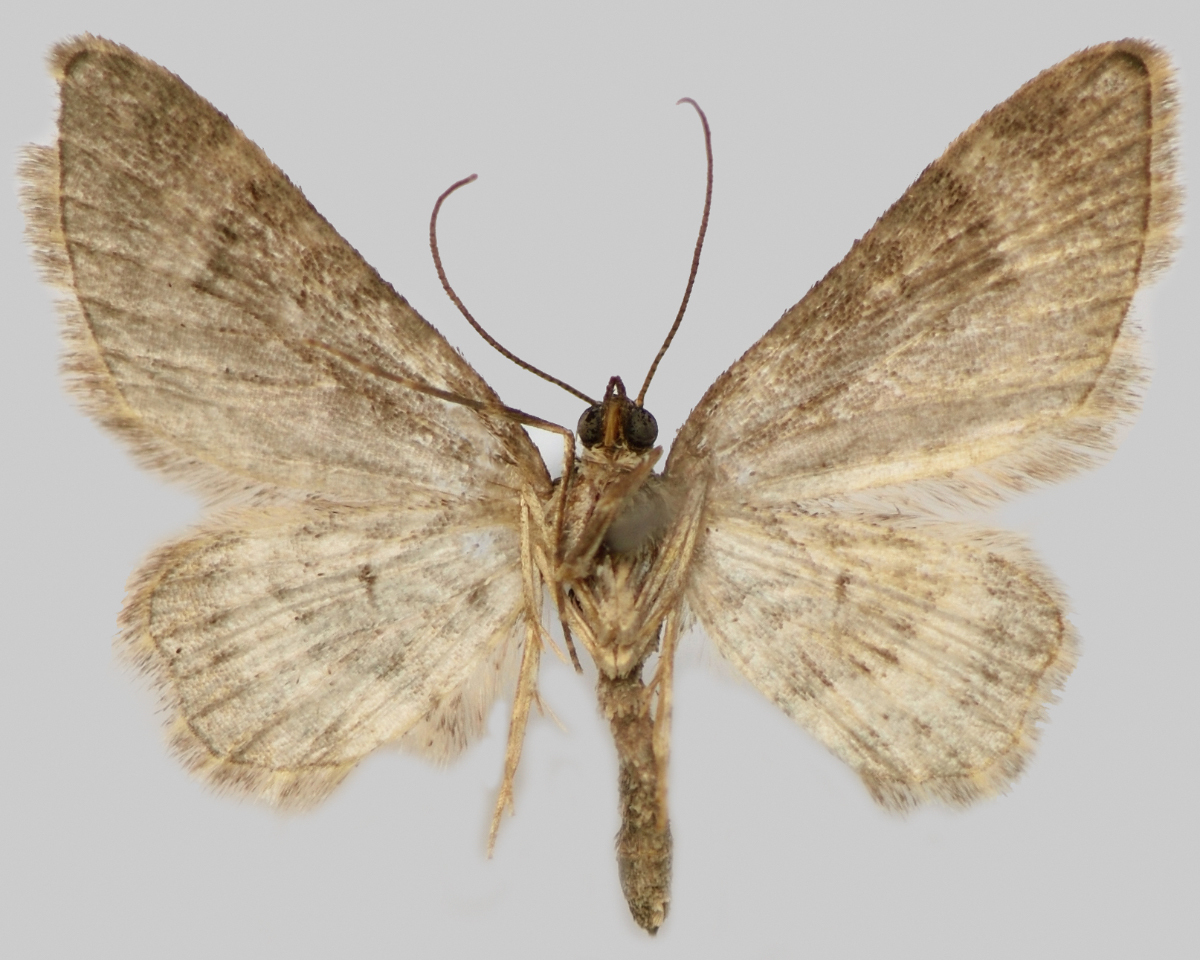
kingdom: Animalia
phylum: Arthropoda
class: Insecta
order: Lepidoptera
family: Geometridae
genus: Gymnoscelis
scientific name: Gymnoscelis rufifasciata
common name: Double-striped pug
